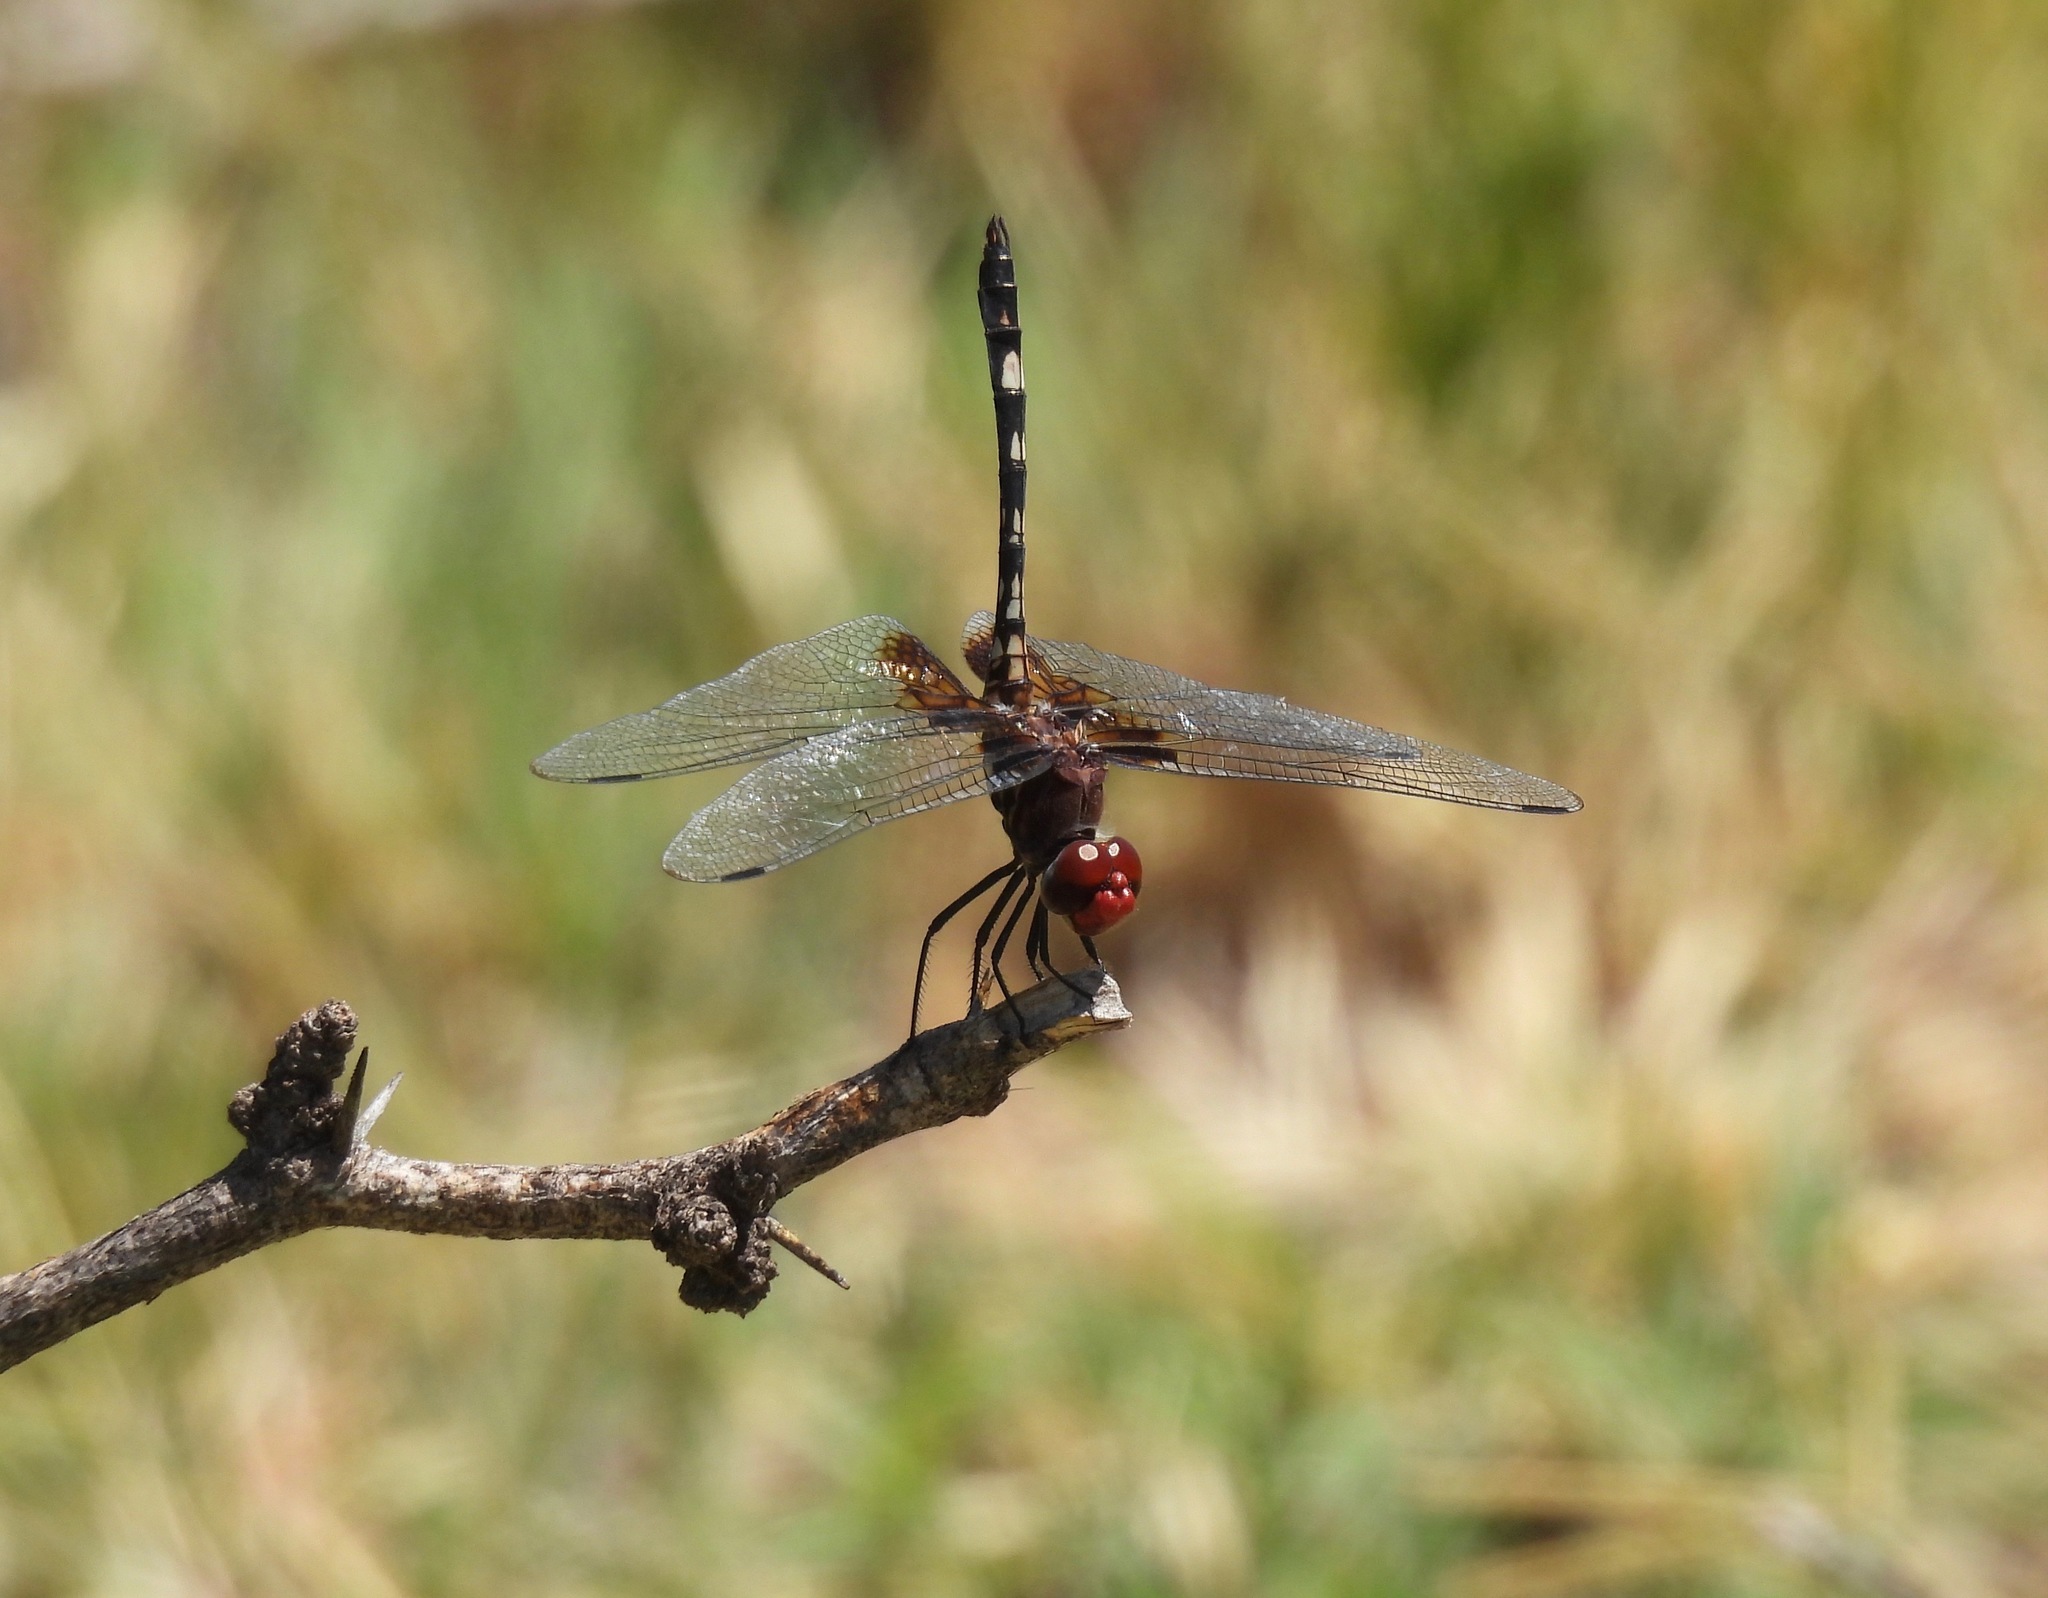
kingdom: Animalia
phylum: Arthropoda
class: Insecta
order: Odonata
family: Libellulidae
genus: Dythemis
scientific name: Dythemis fugax
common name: Checkered setwing
